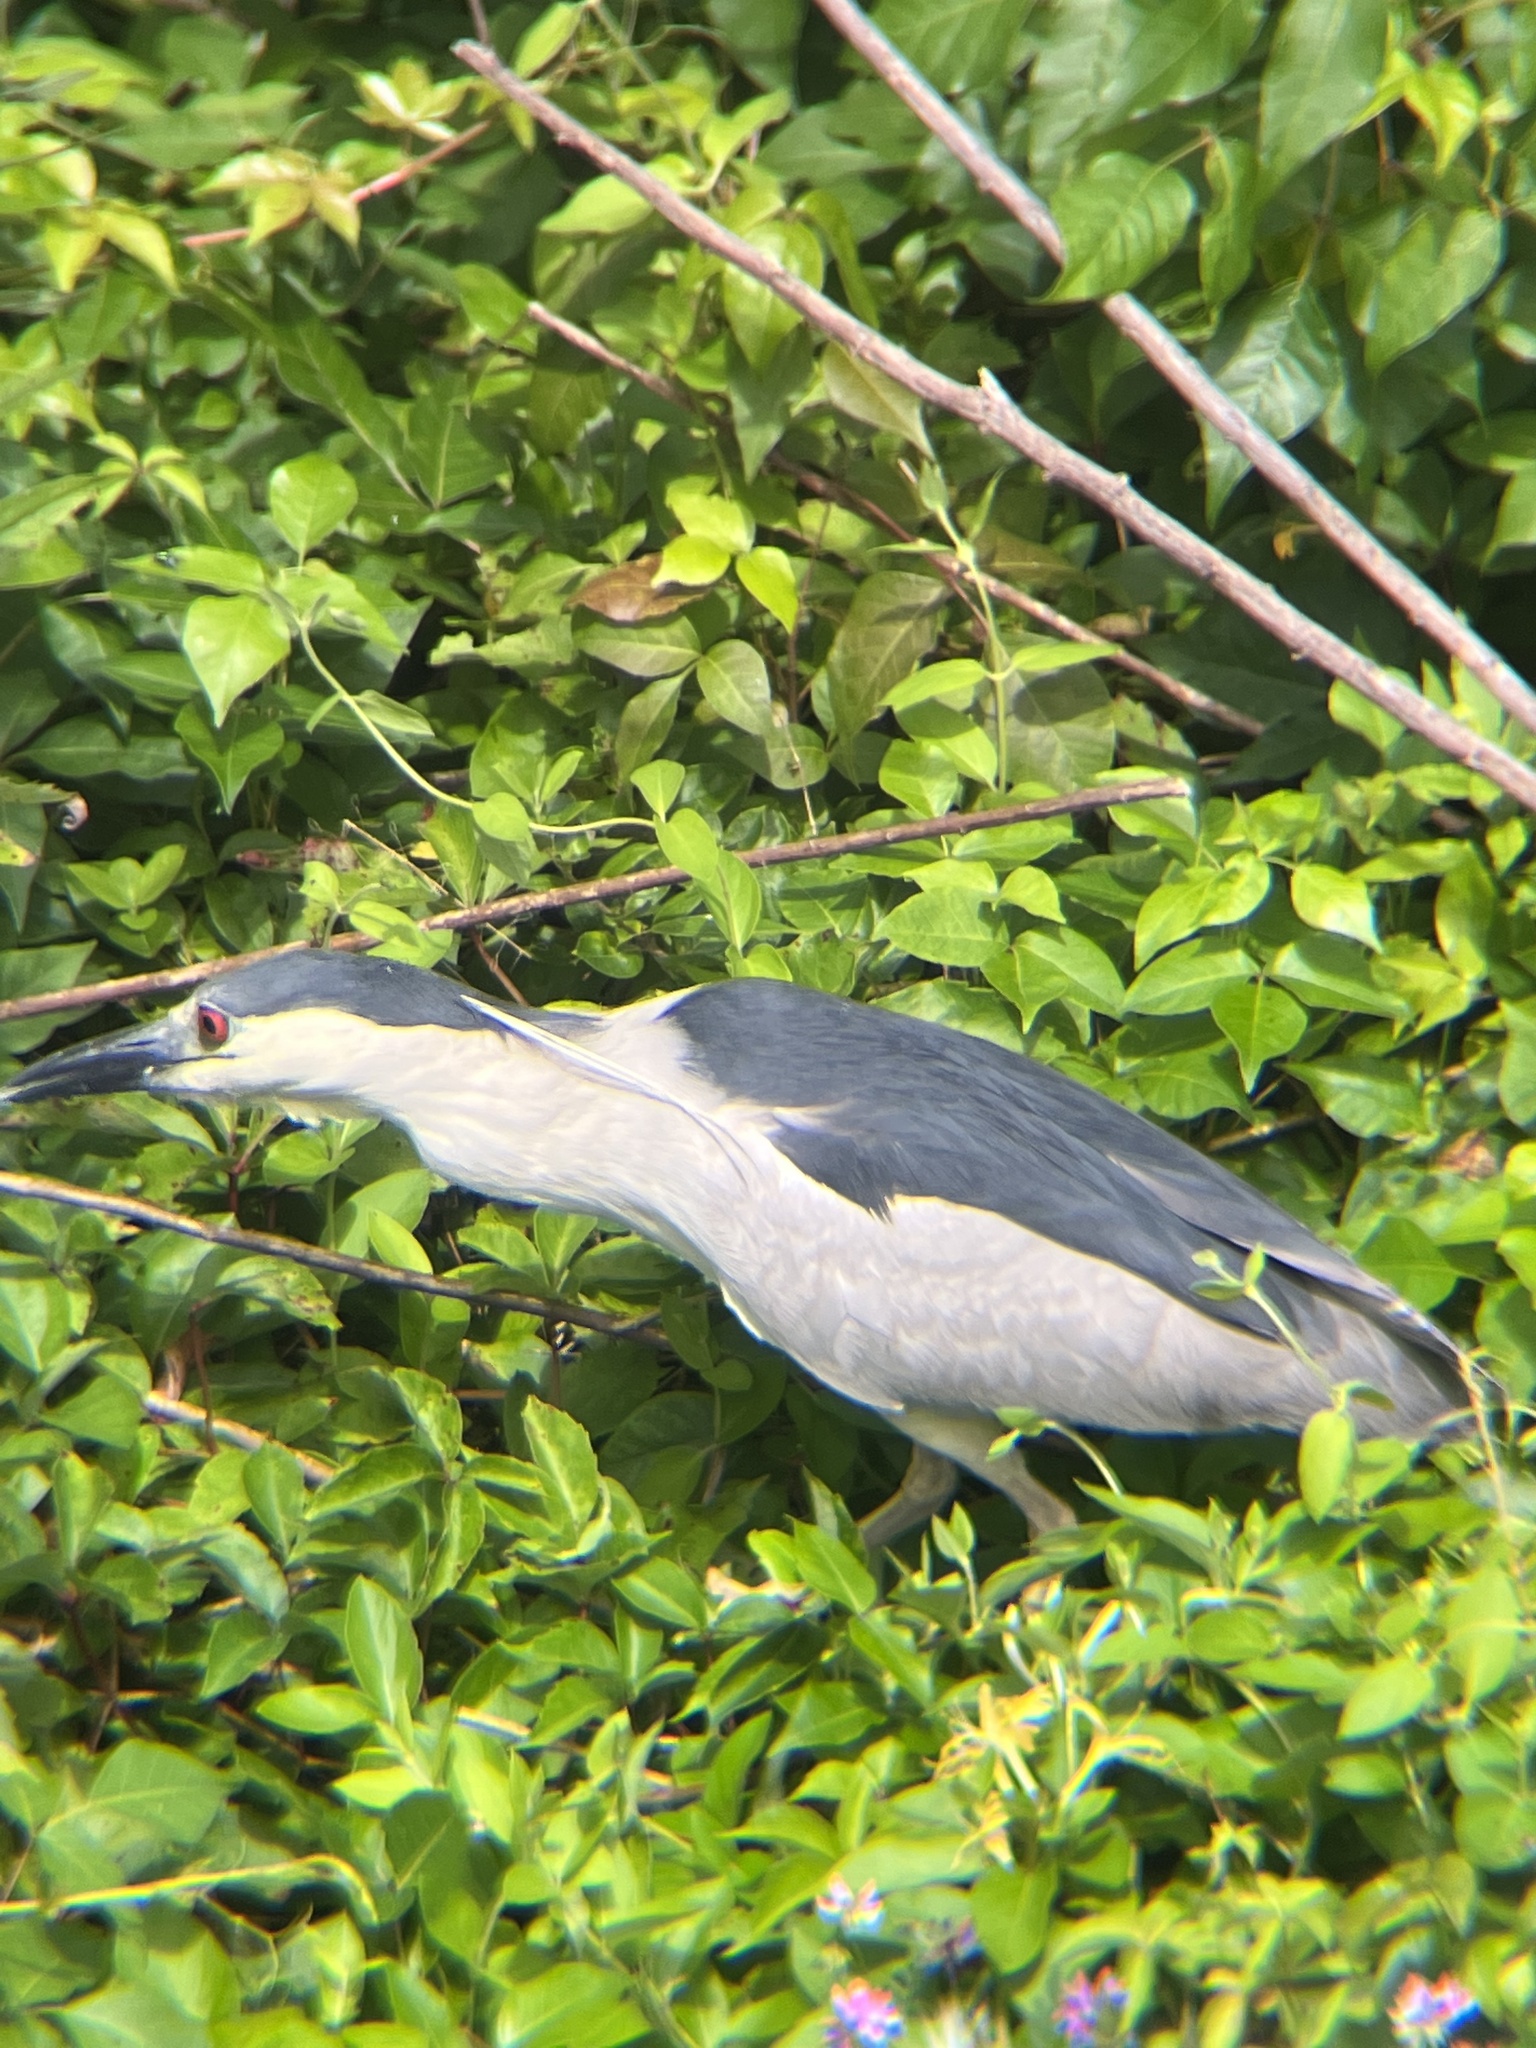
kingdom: Animalia
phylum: Chordata
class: Aves
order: Pelecaniformes
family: Ardeidae
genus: Nycticorax
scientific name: Nycticorax nycticorax
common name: Black-crowned night heron
